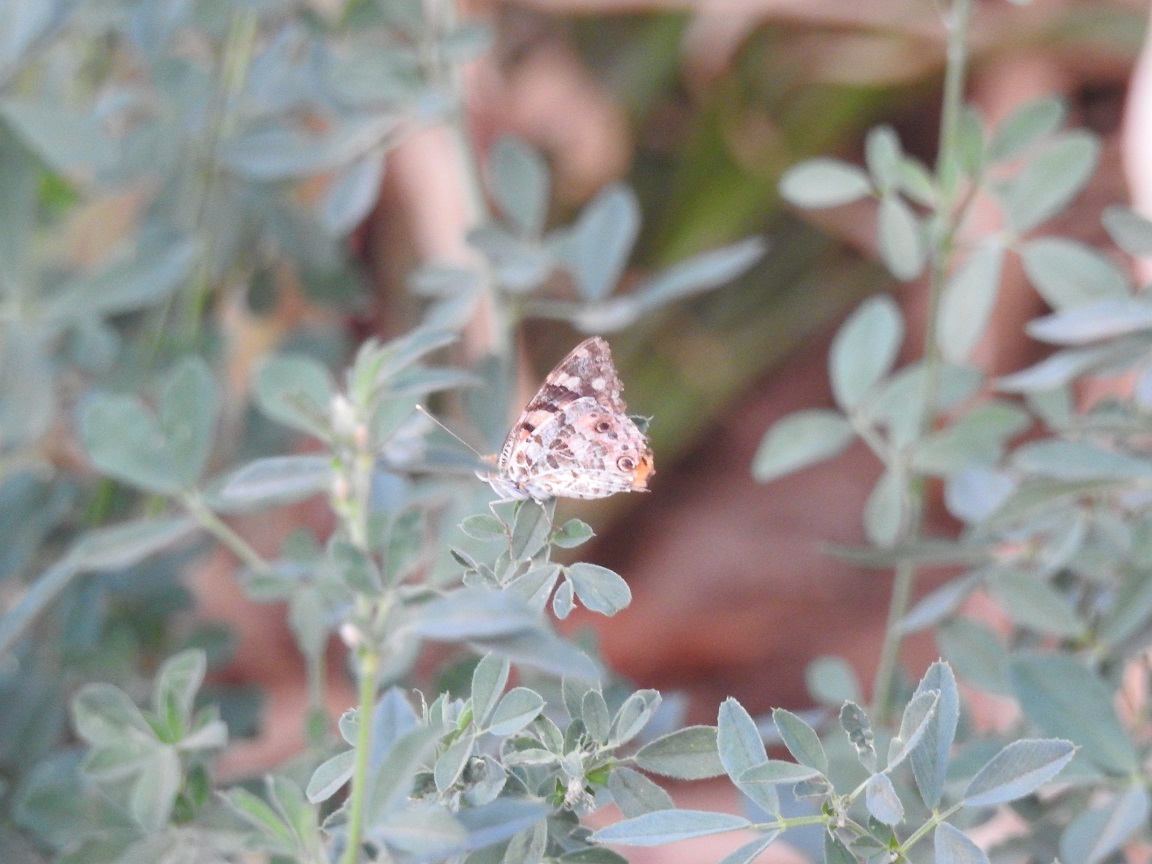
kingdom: Animalia
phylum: Arthropoda
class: Insecta
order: Lepidoptera
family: Nymphalidae
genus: Vanessa
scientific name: Vanessa cardui
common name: Painted lady
